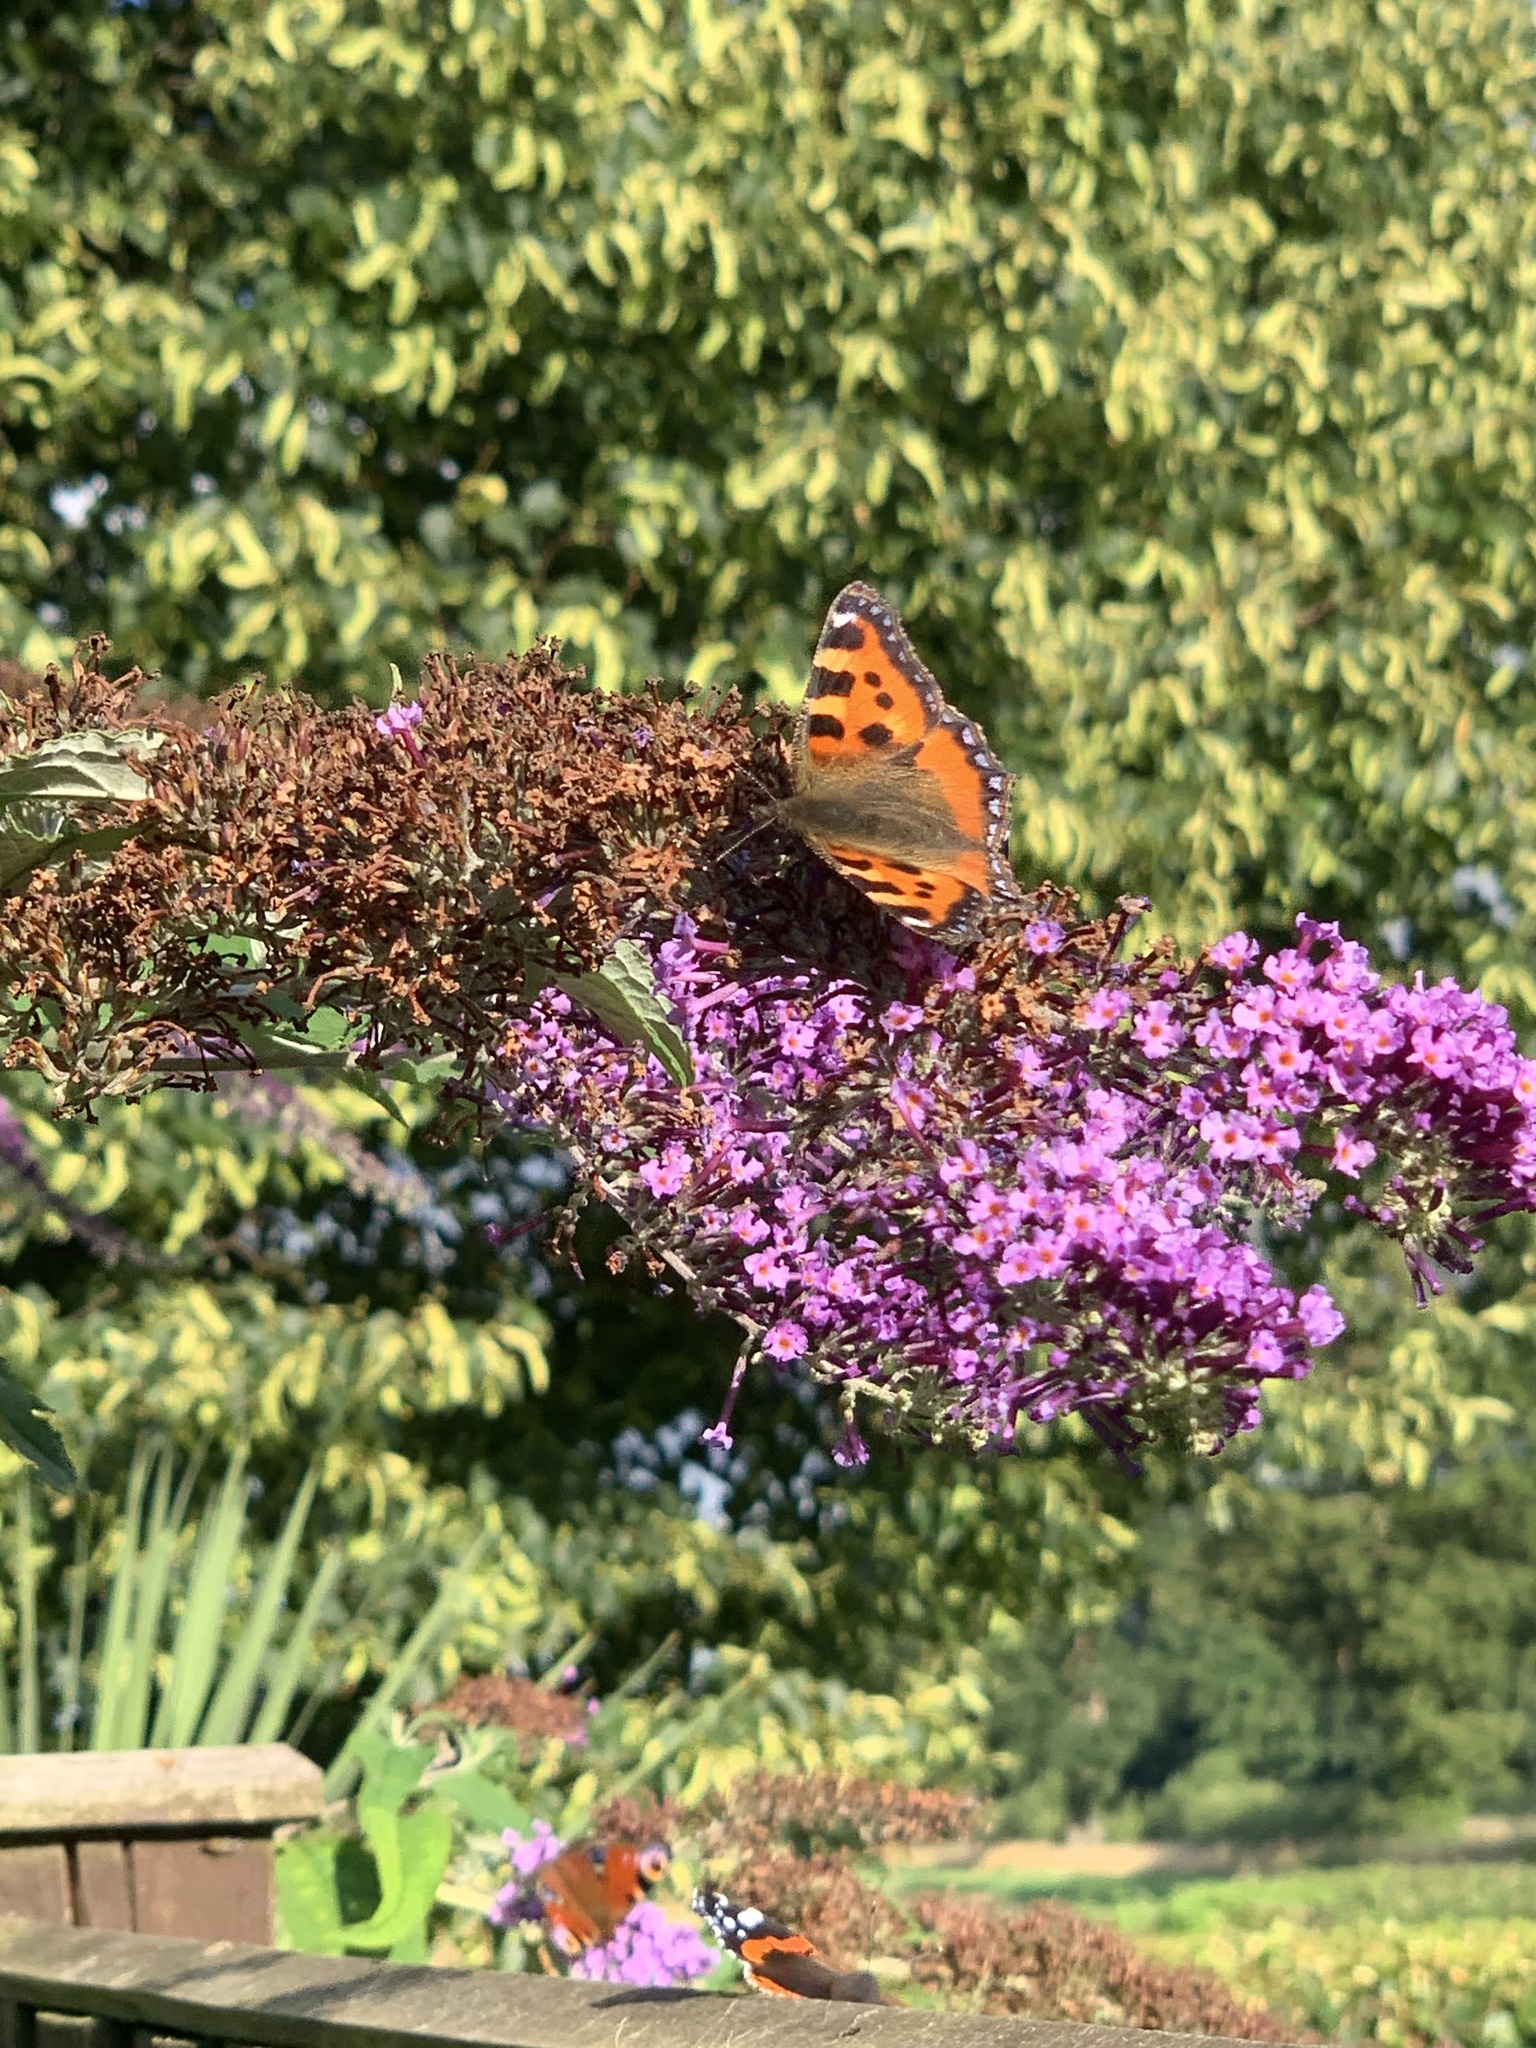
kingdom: Animalia
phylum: Arthropoda
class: Insecta
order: Lepidoptera
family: Nymphalidae
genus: Aglais
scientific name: Aglais urticae
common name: Small tortoiseshell
